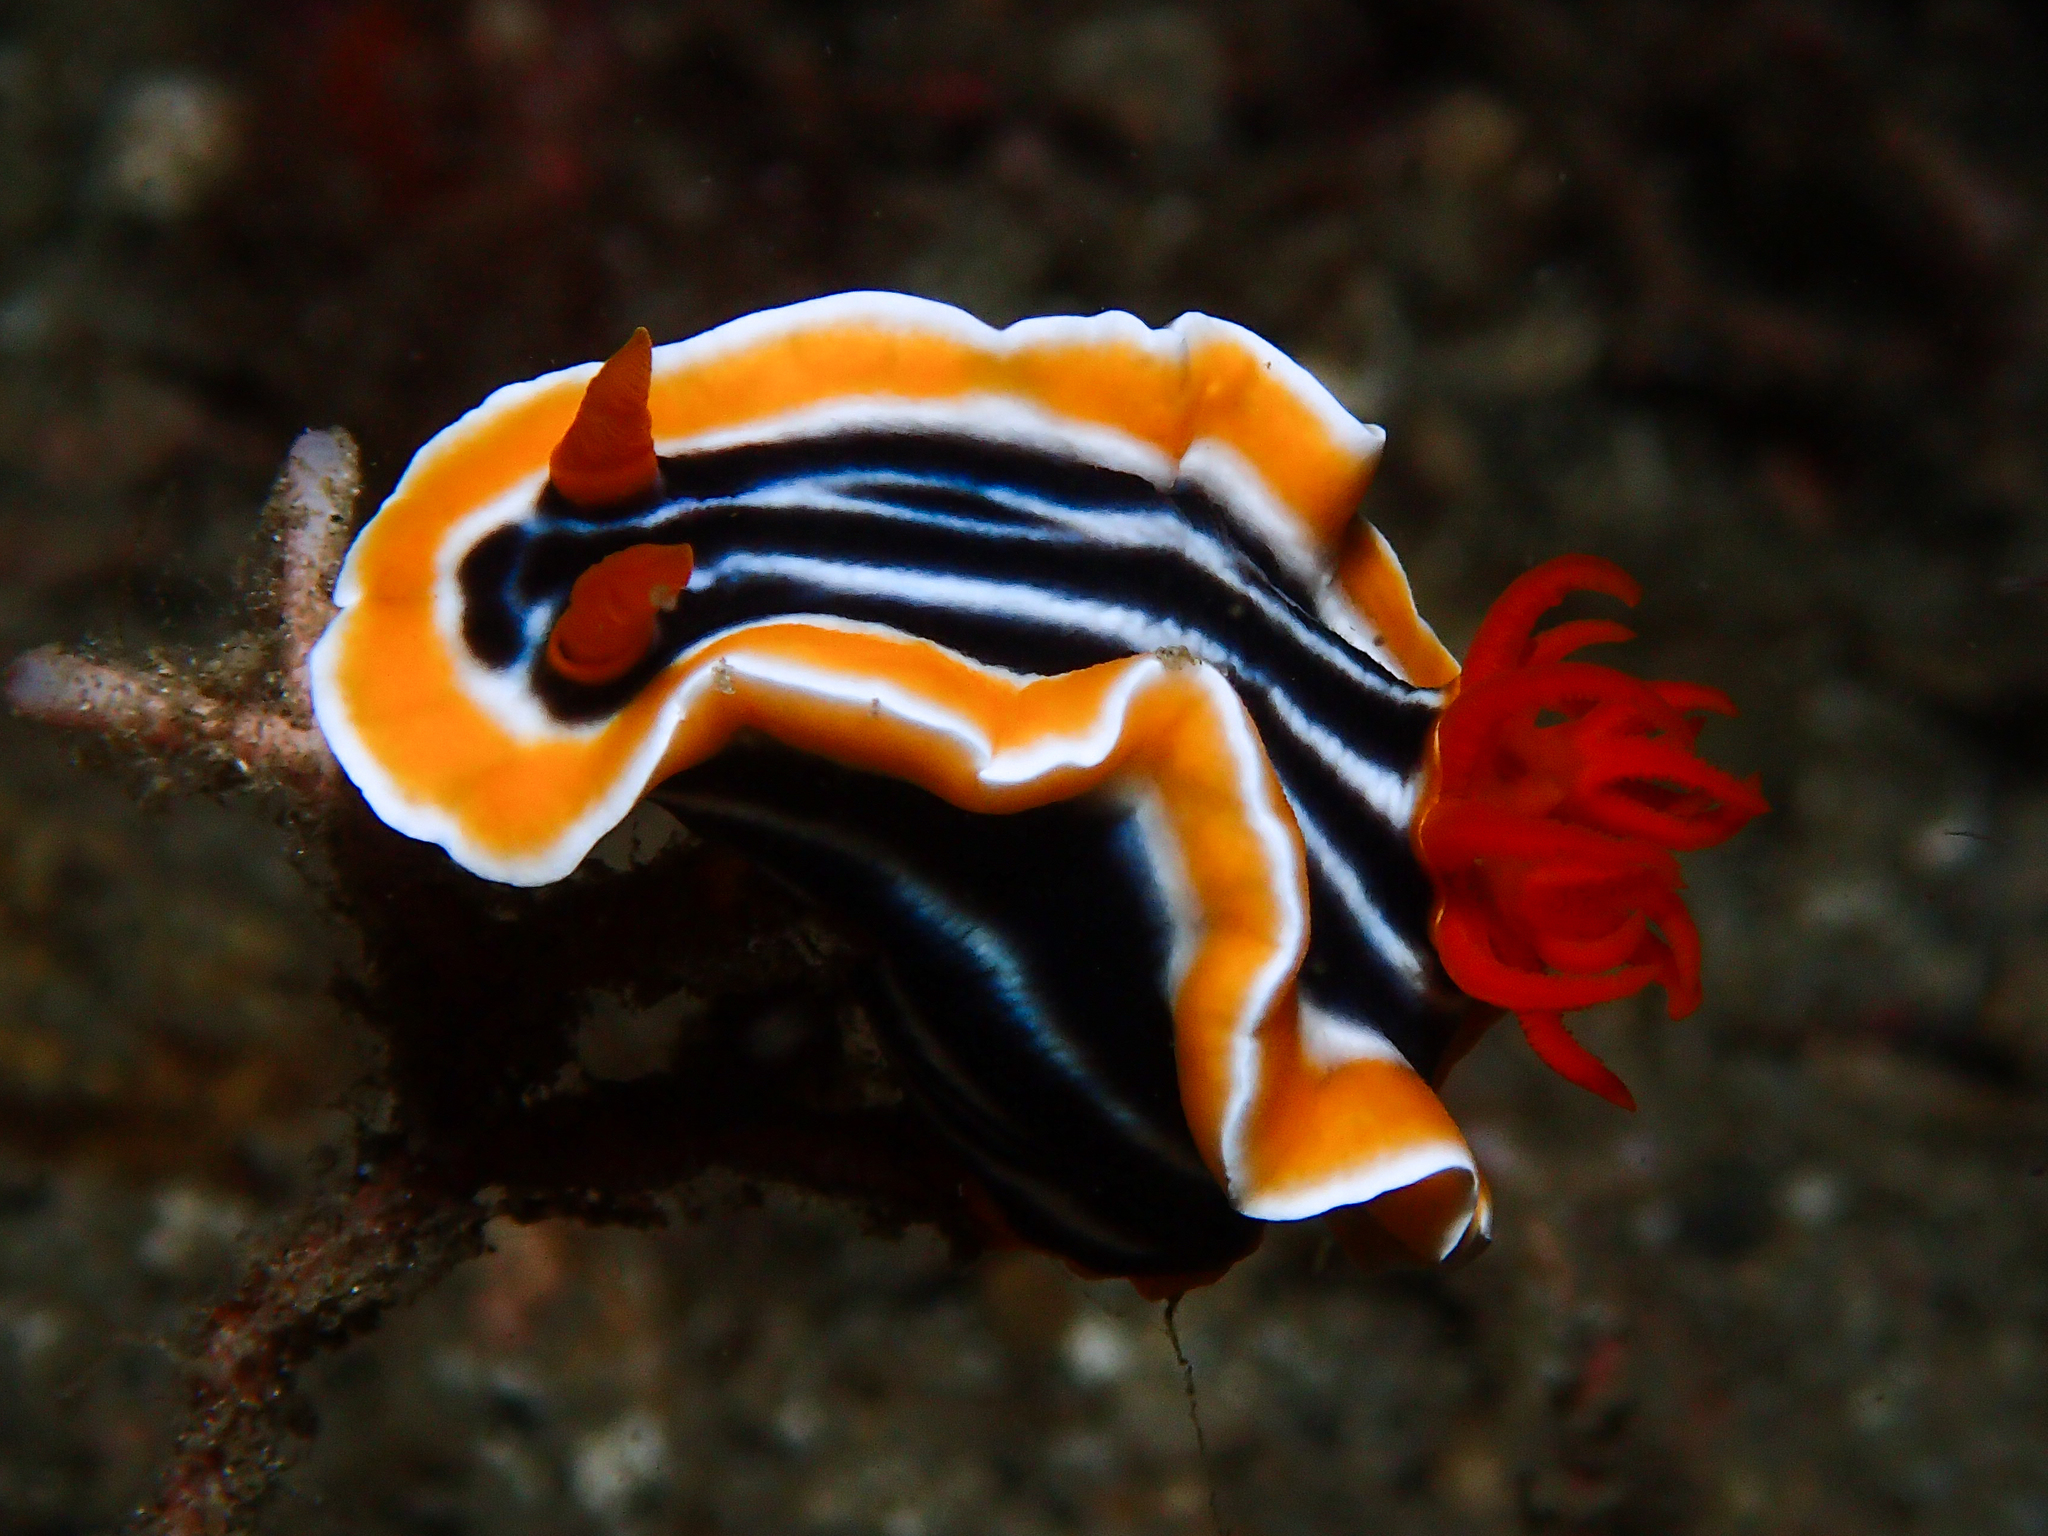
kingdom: Animalia
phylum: Mollusca
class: Gastropoda
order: Nudibranchia
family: Chromodorididae
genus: Chromodoris
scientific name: Chromodoris magnifica
